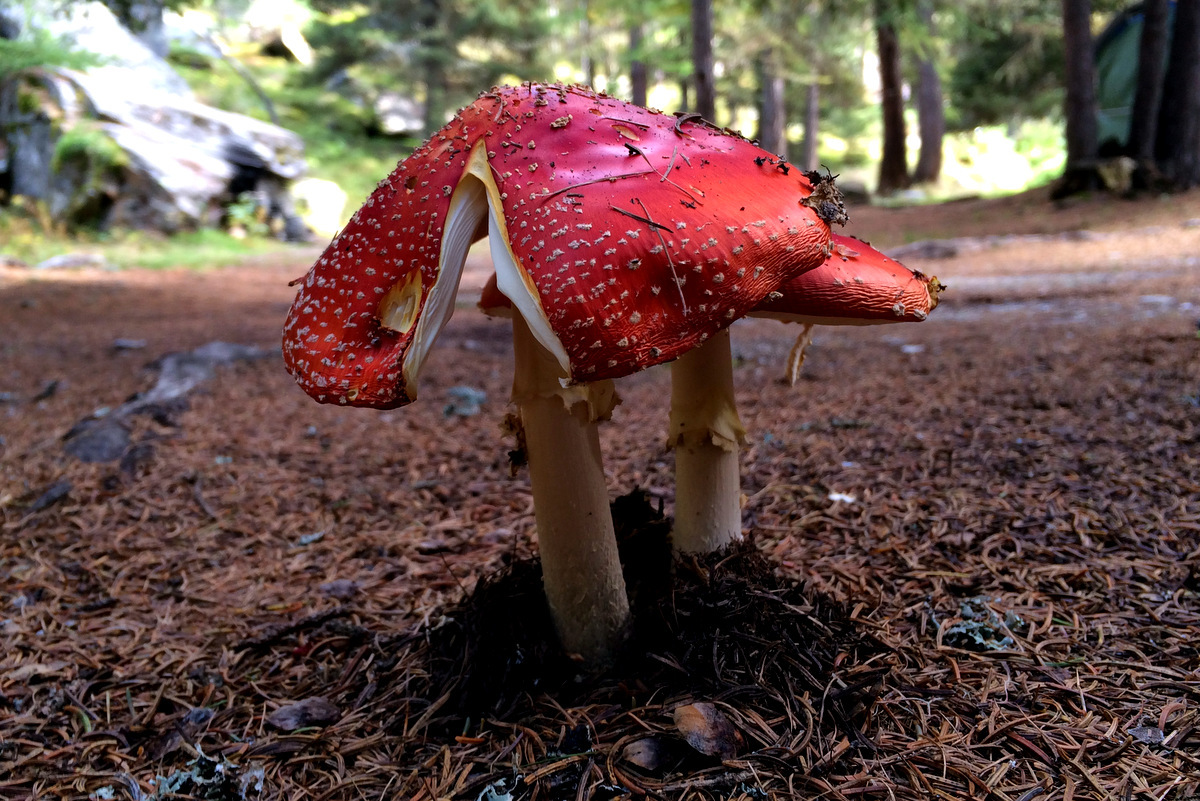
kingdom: Fungi
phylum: Basidiomycota
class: Agaricomycetes
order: Agaricales
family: Amanitaceae
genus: Amanita
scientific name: Amanita muscaria
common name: Fly agaric
